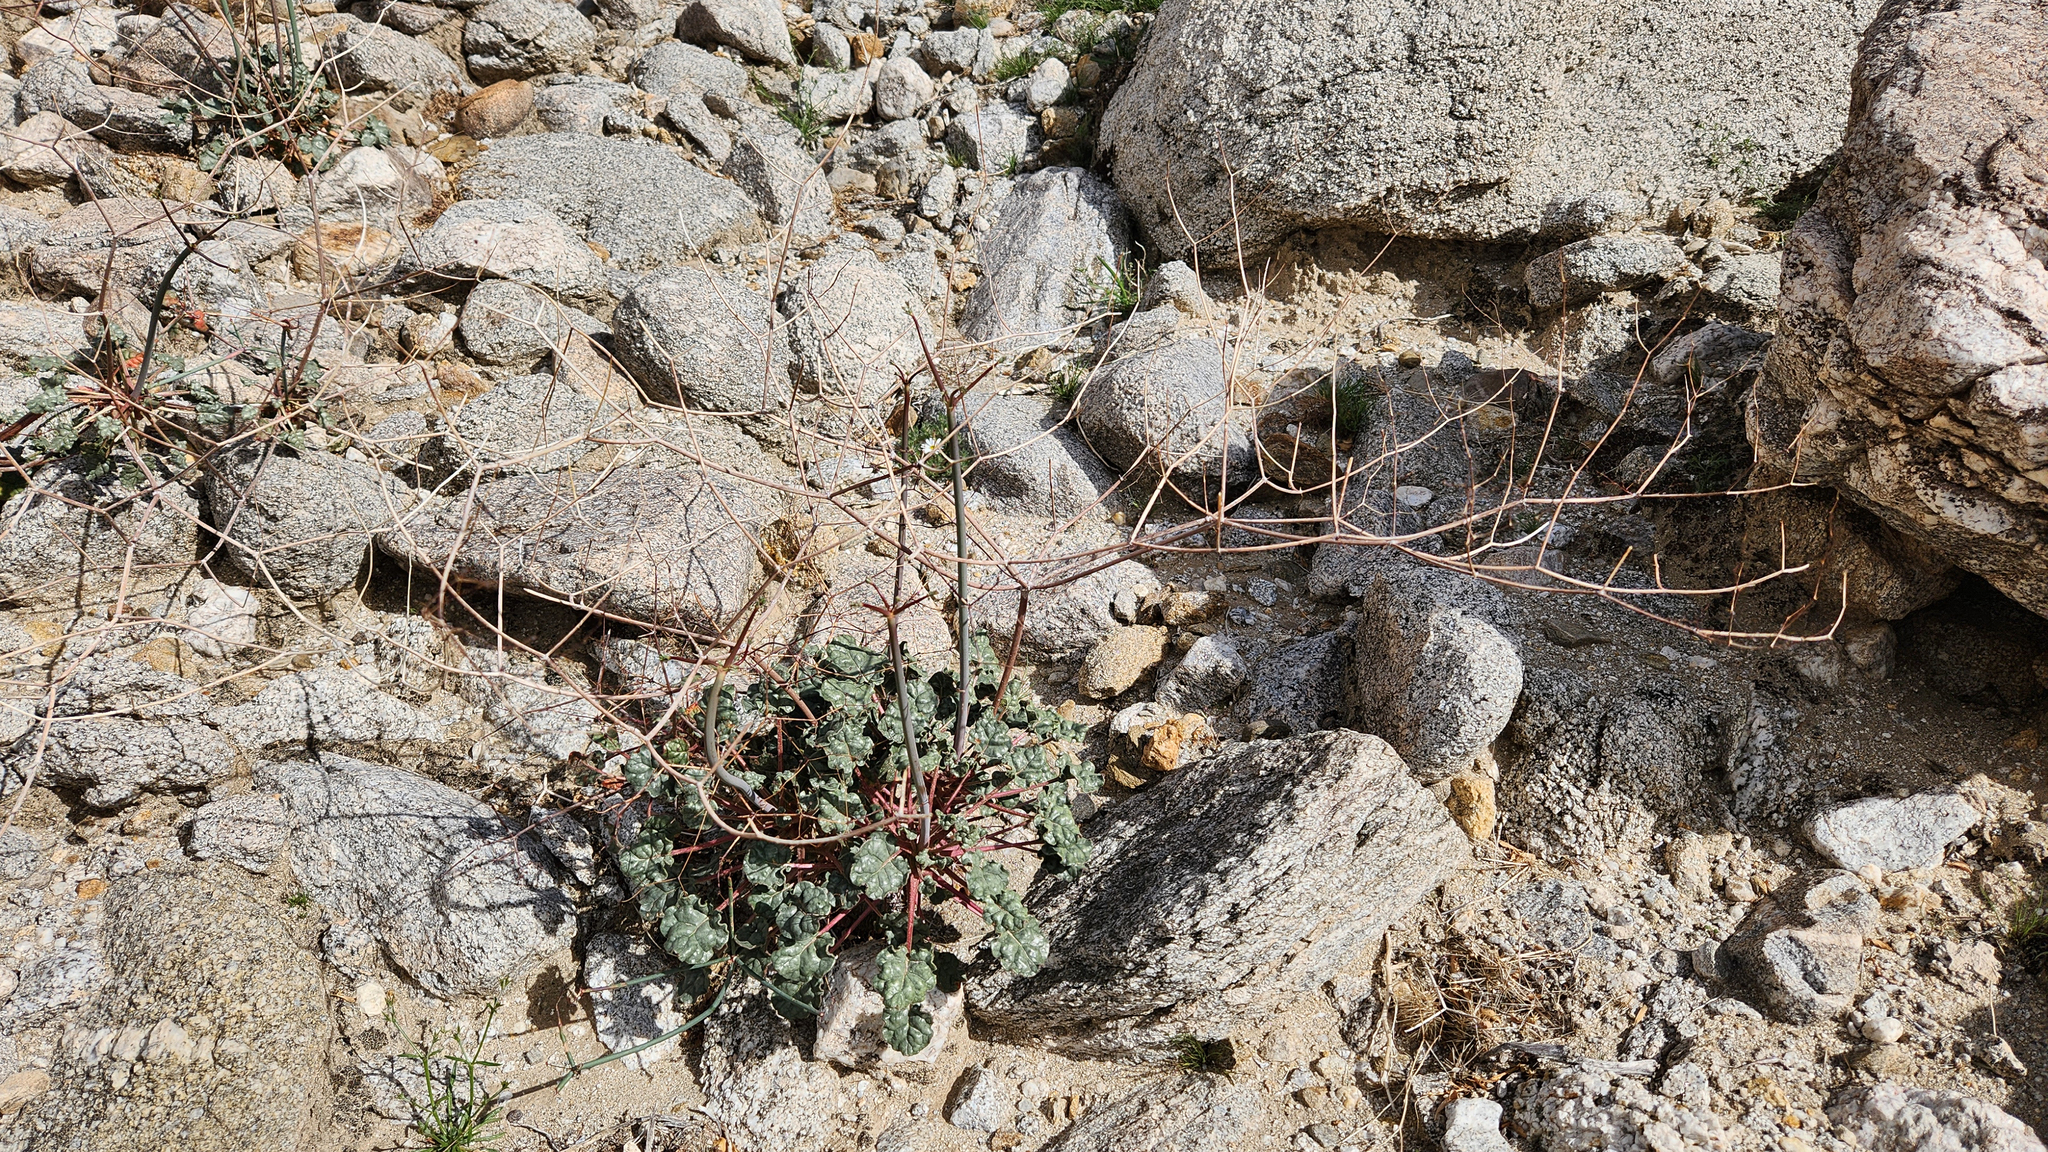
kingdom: Plantae
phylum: Tracheophyta
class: Magnoliopsida
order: Caryophyllales
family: Polygonaceae
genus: Eriogonum
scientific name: Eriogonum inflatum
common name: Desert trumpet
